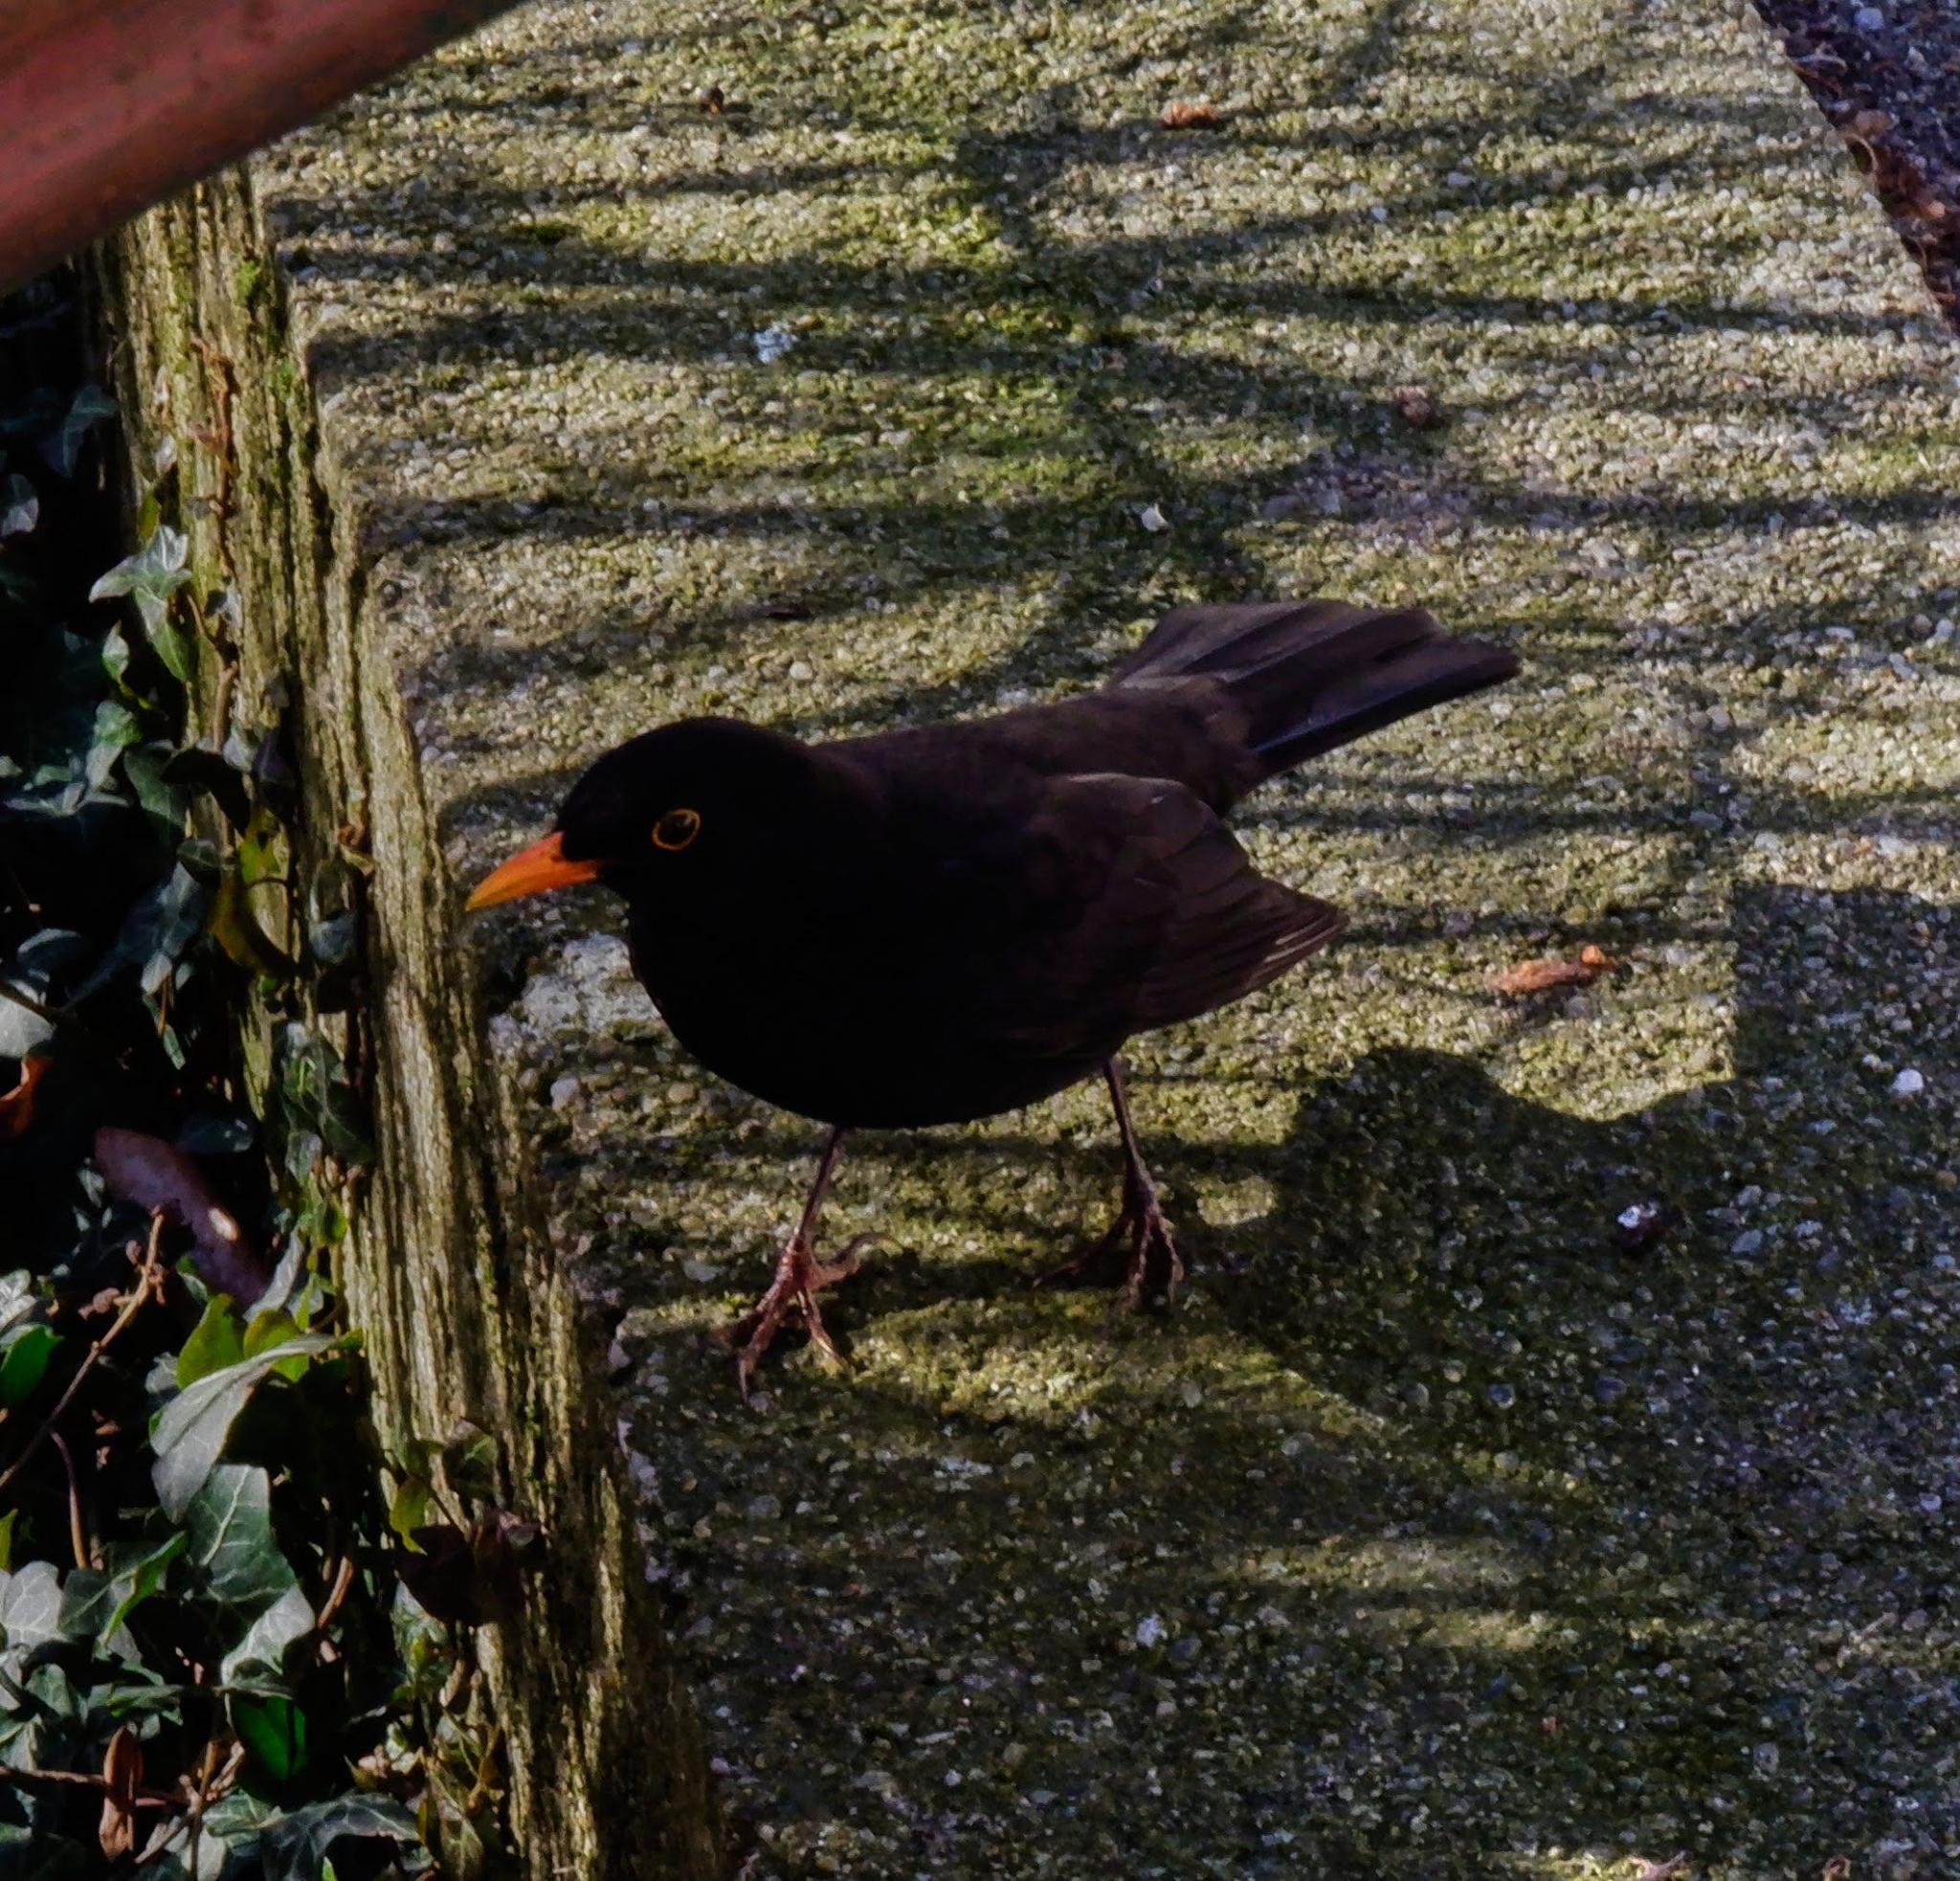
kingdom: Animalia
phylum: Chordata
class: Aves
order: Passeriformes
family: Turdidae
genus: Turdus
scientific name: Turdus merula
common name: Common blackbird
